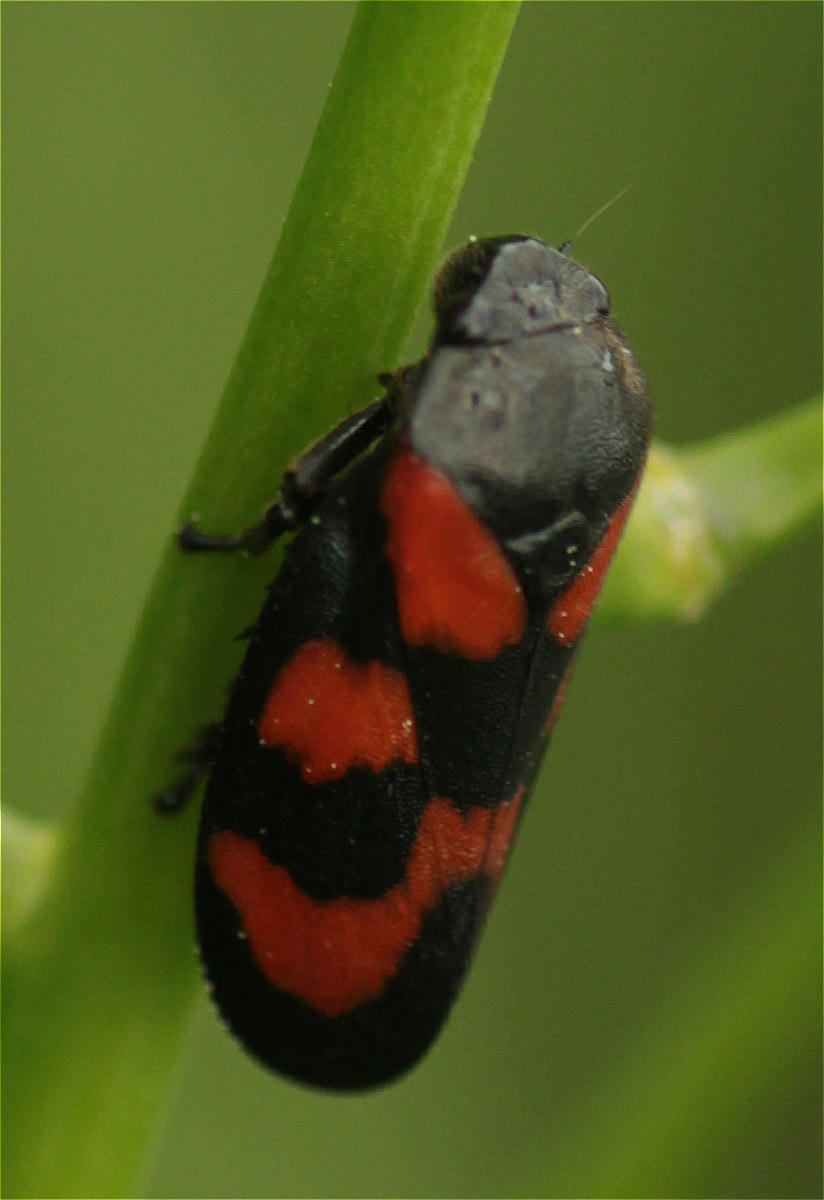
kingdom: Animalia
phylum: Arthropoda
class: Insecta
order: Hemiptera
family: Cercopidae
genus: Cercopis
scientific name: Cercopis vulnerata
